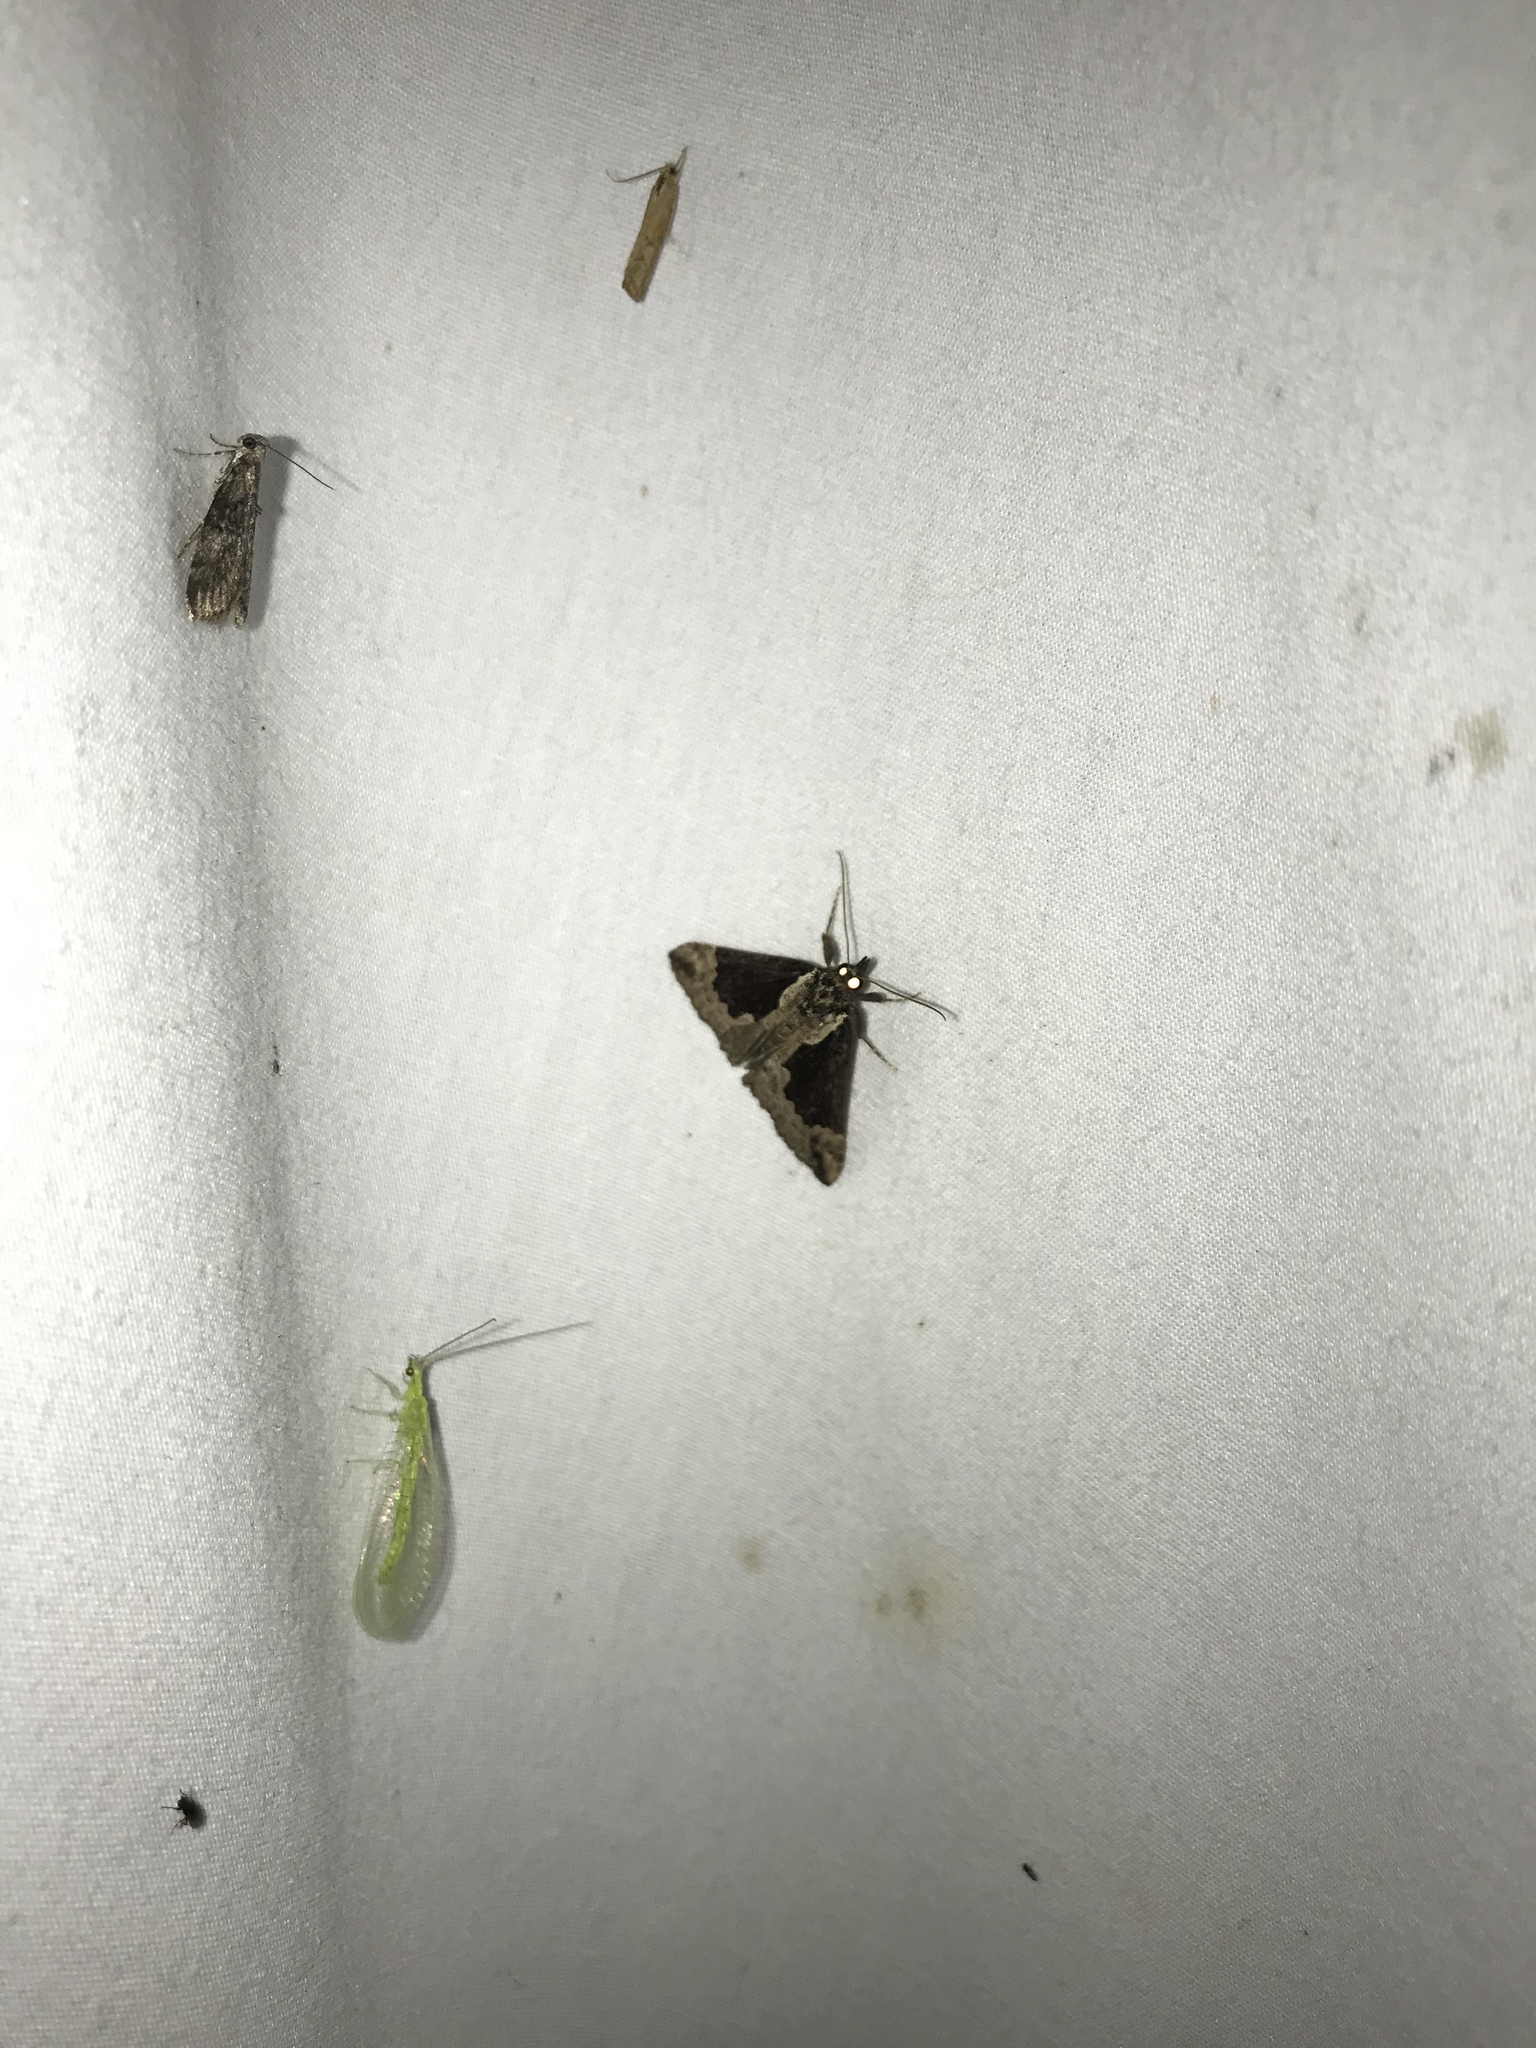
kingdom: Animalia
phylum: Arthropoda
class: Insecta
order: Lepidoptera
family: Erebidae
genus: Hypena
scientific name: Hypena baltimoralis
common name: Baltimore snout
